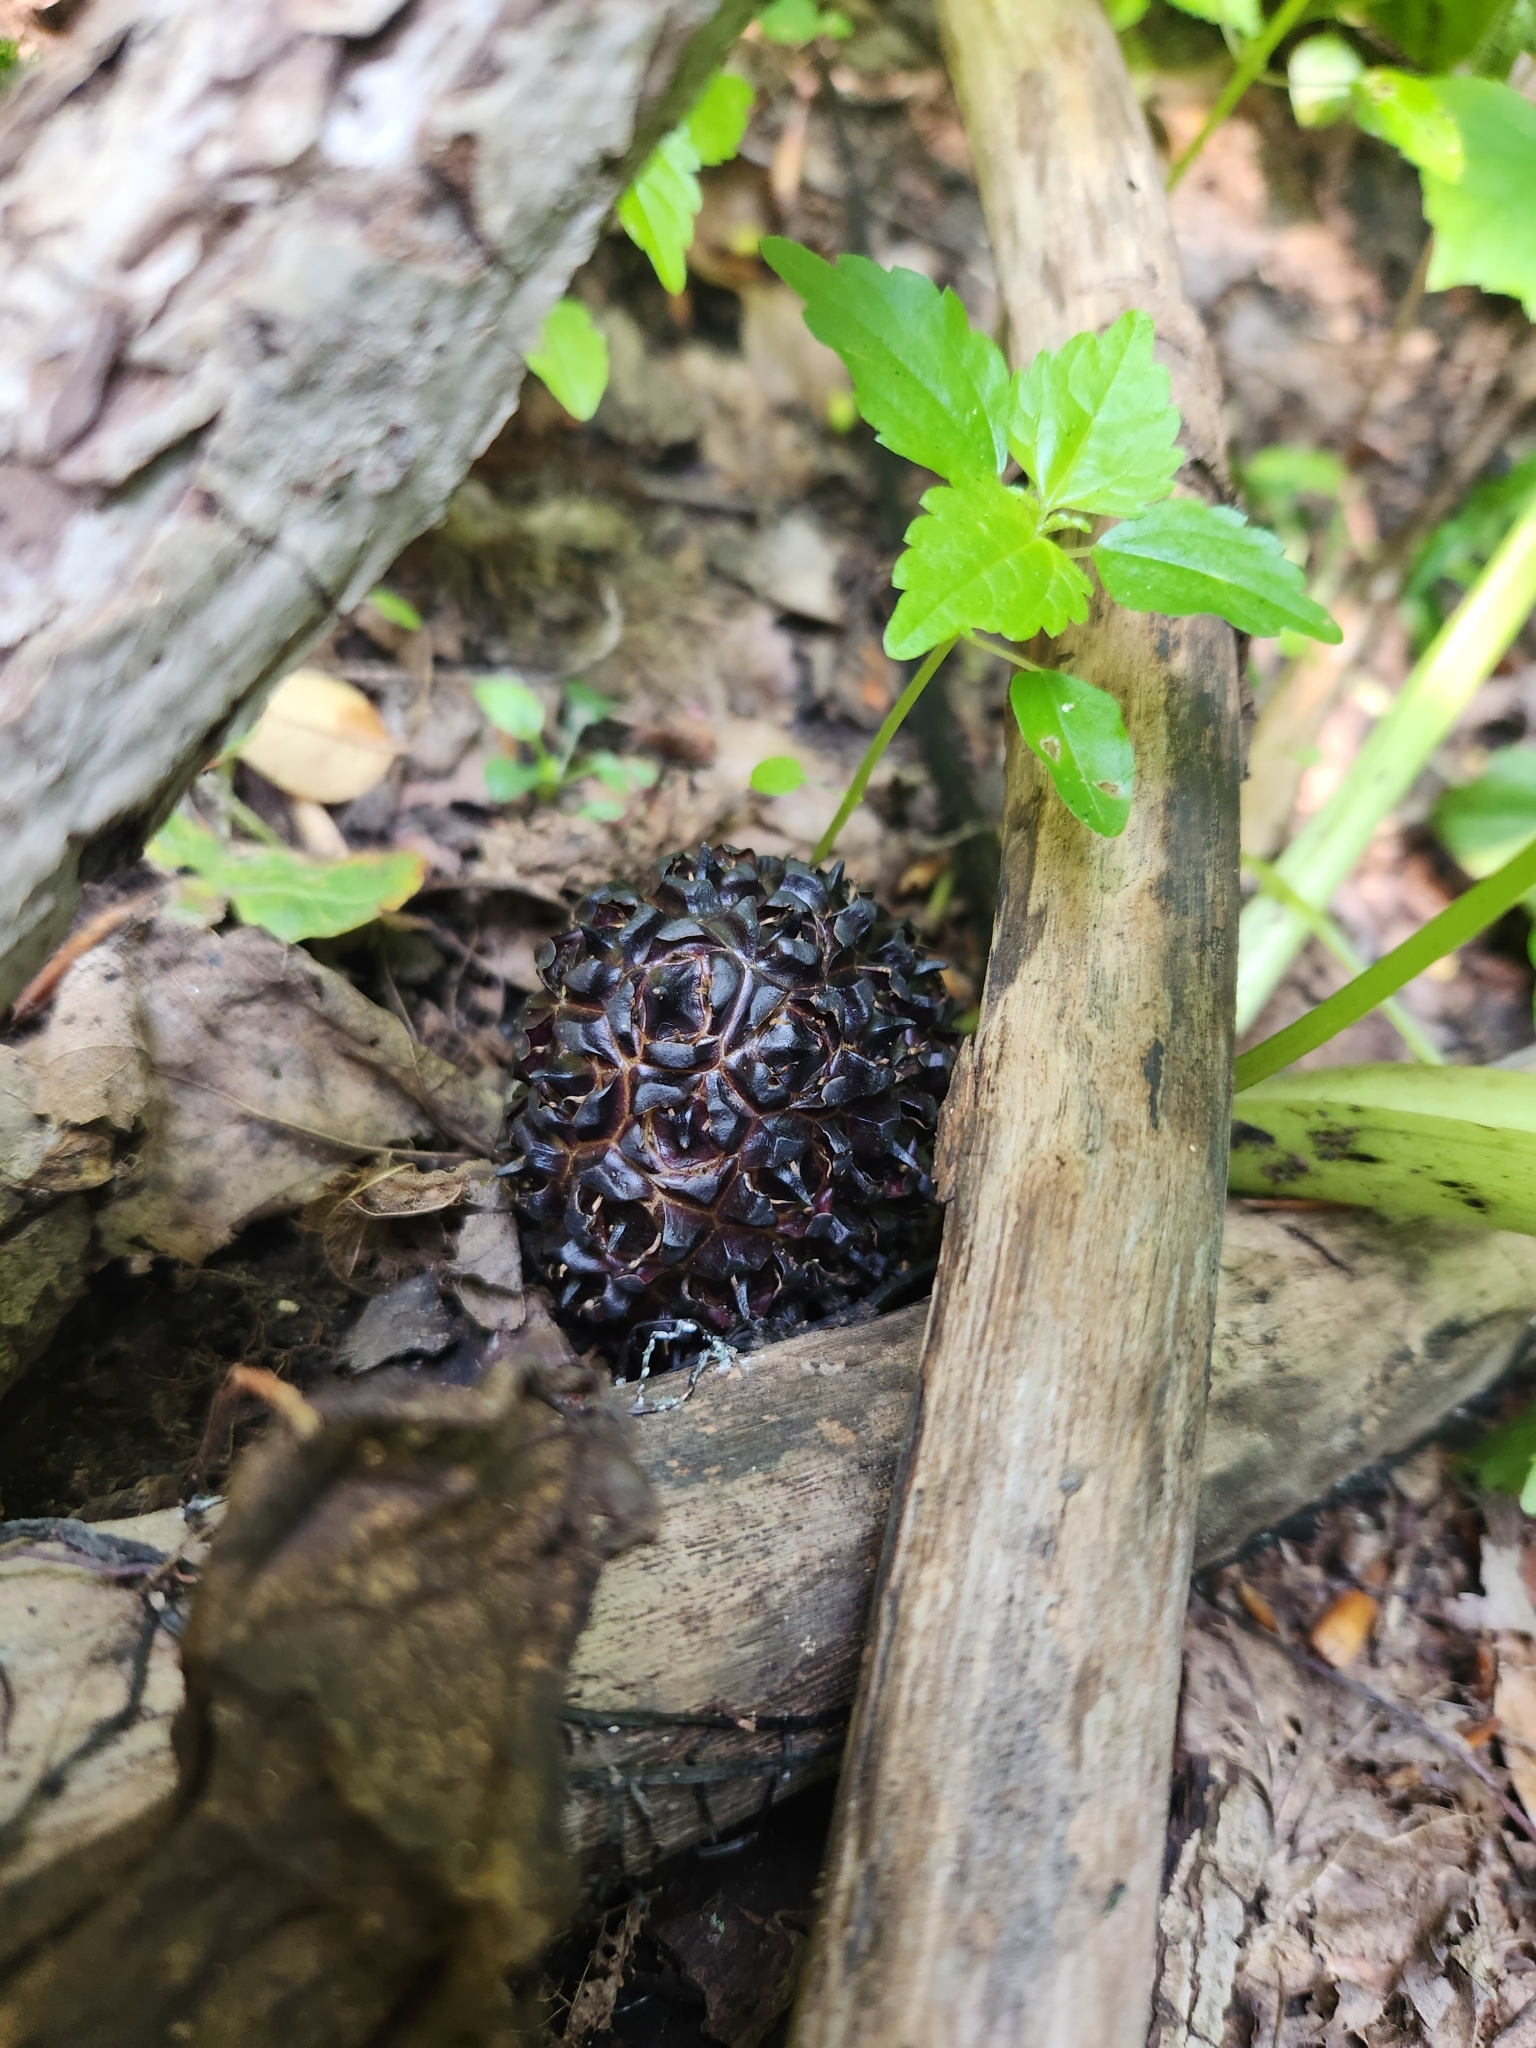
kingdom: Plantae
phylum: Tracheophyta
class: Liliopsida
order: Alismatales
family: Araceae
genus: Symplocarpus
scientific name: Symplocarpus foetidus
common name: Eastern skunk cabbage
